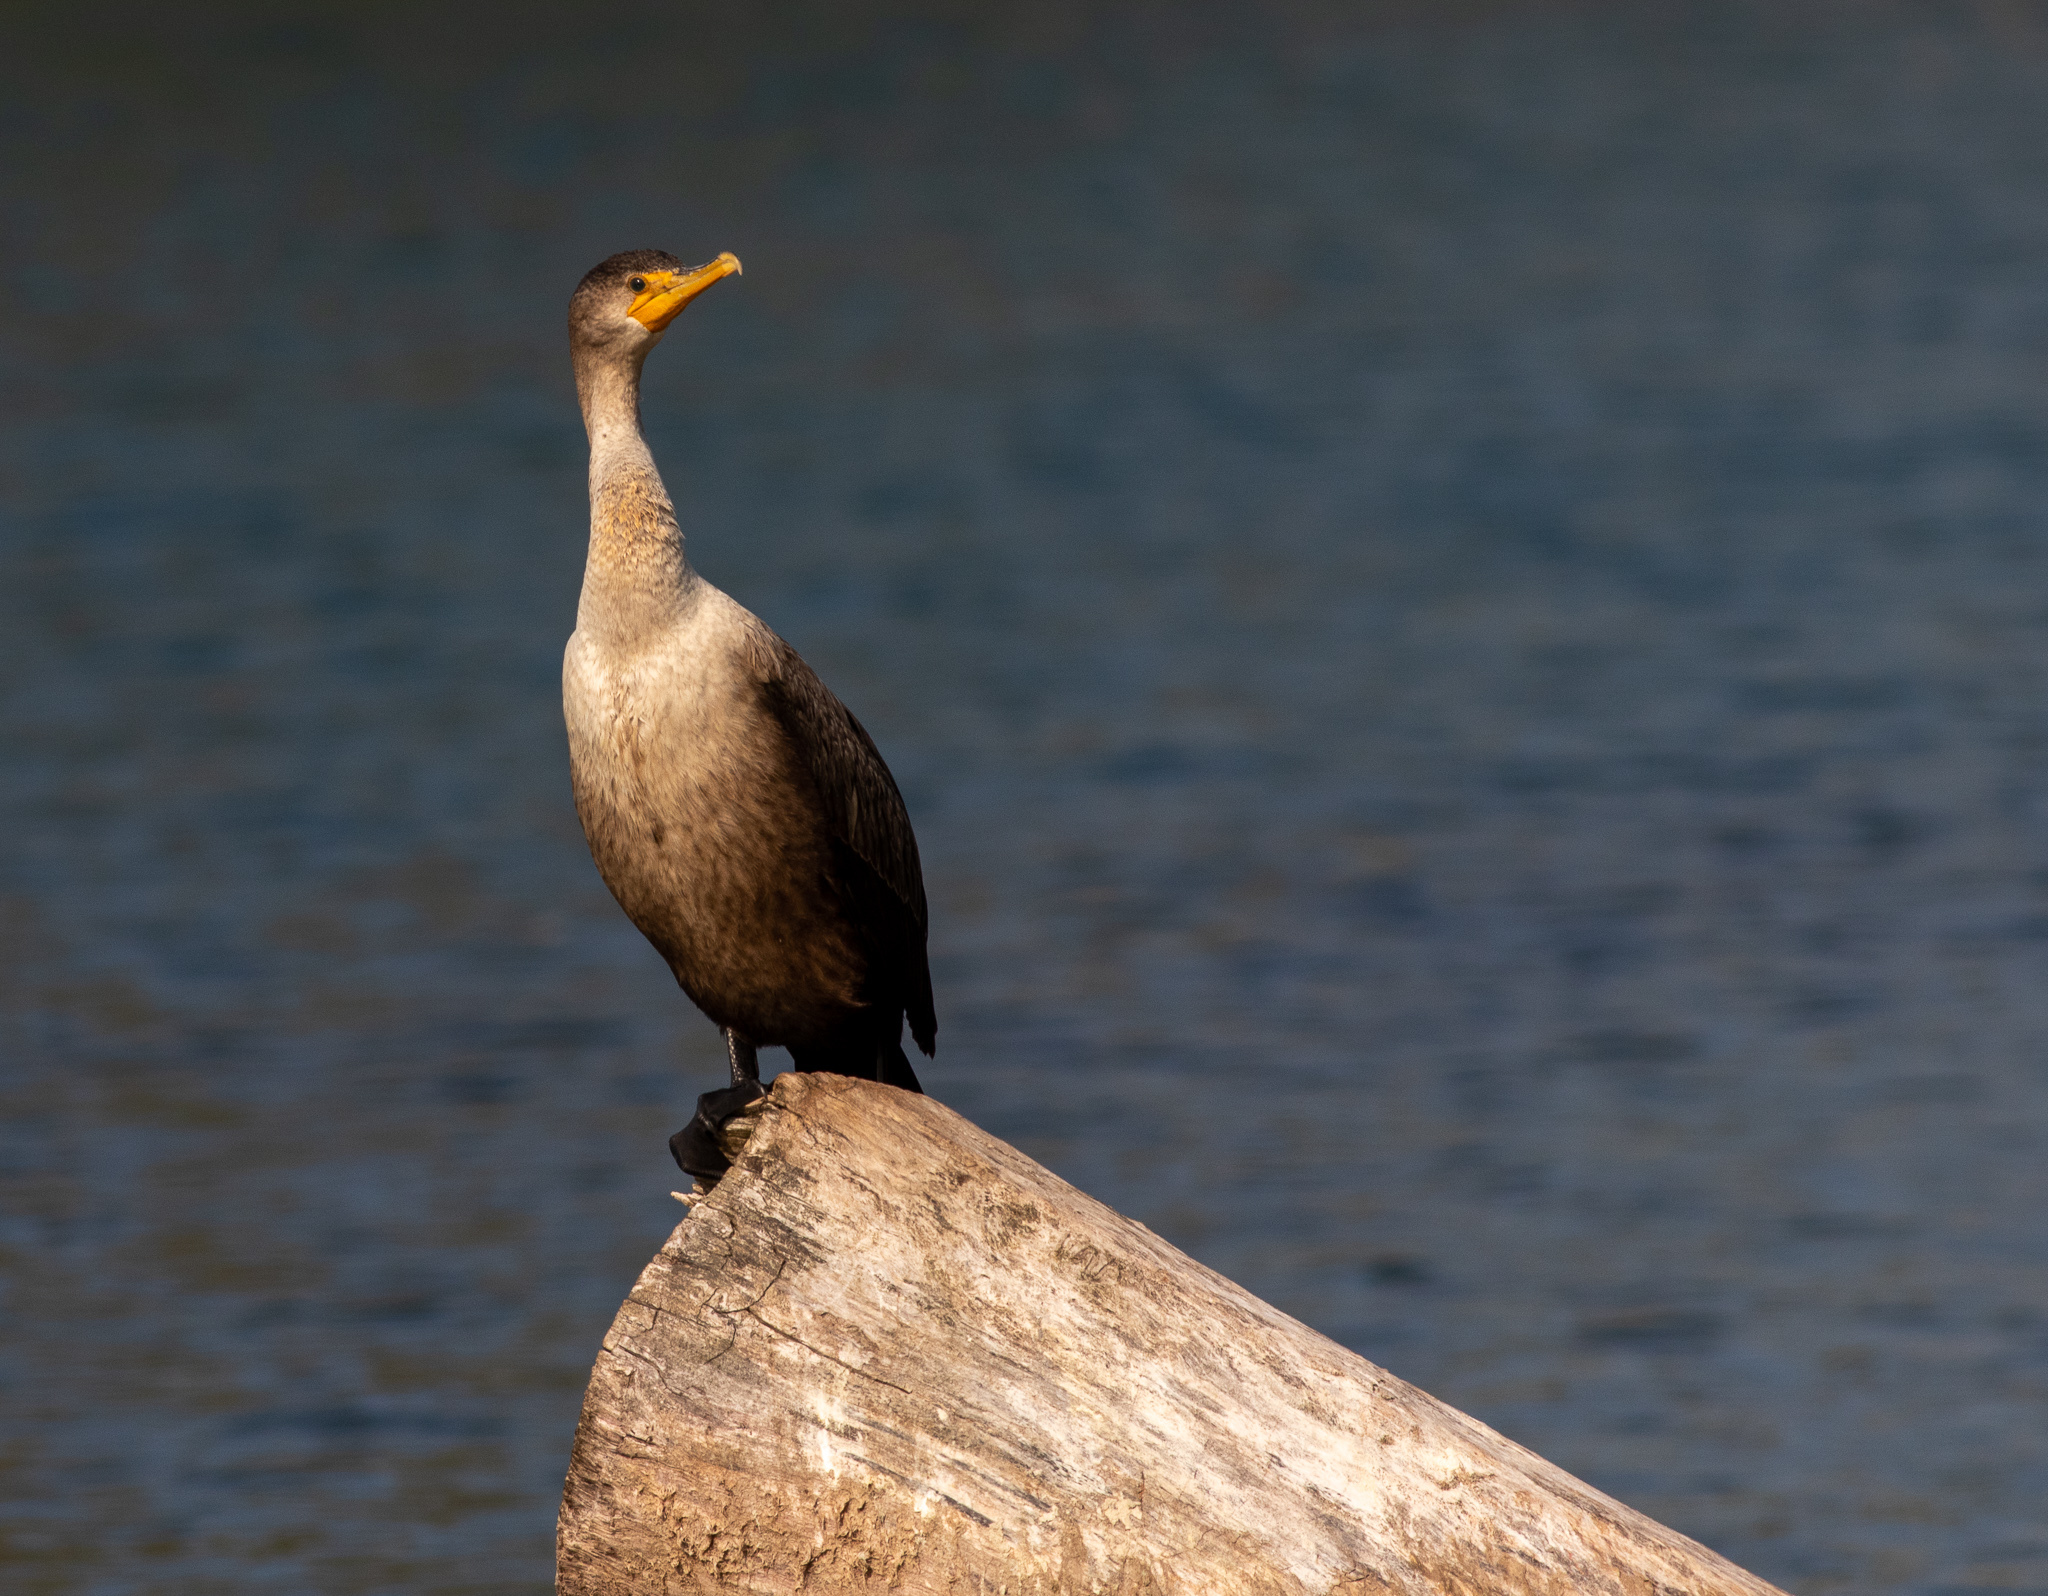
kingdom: Animalia
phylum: Chordata
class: Aves
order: Suliformes
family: Phalacrocoracidae
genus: Phalacrocorax
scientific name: Phalacrocorax auritus
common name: Double-crested cormorant
